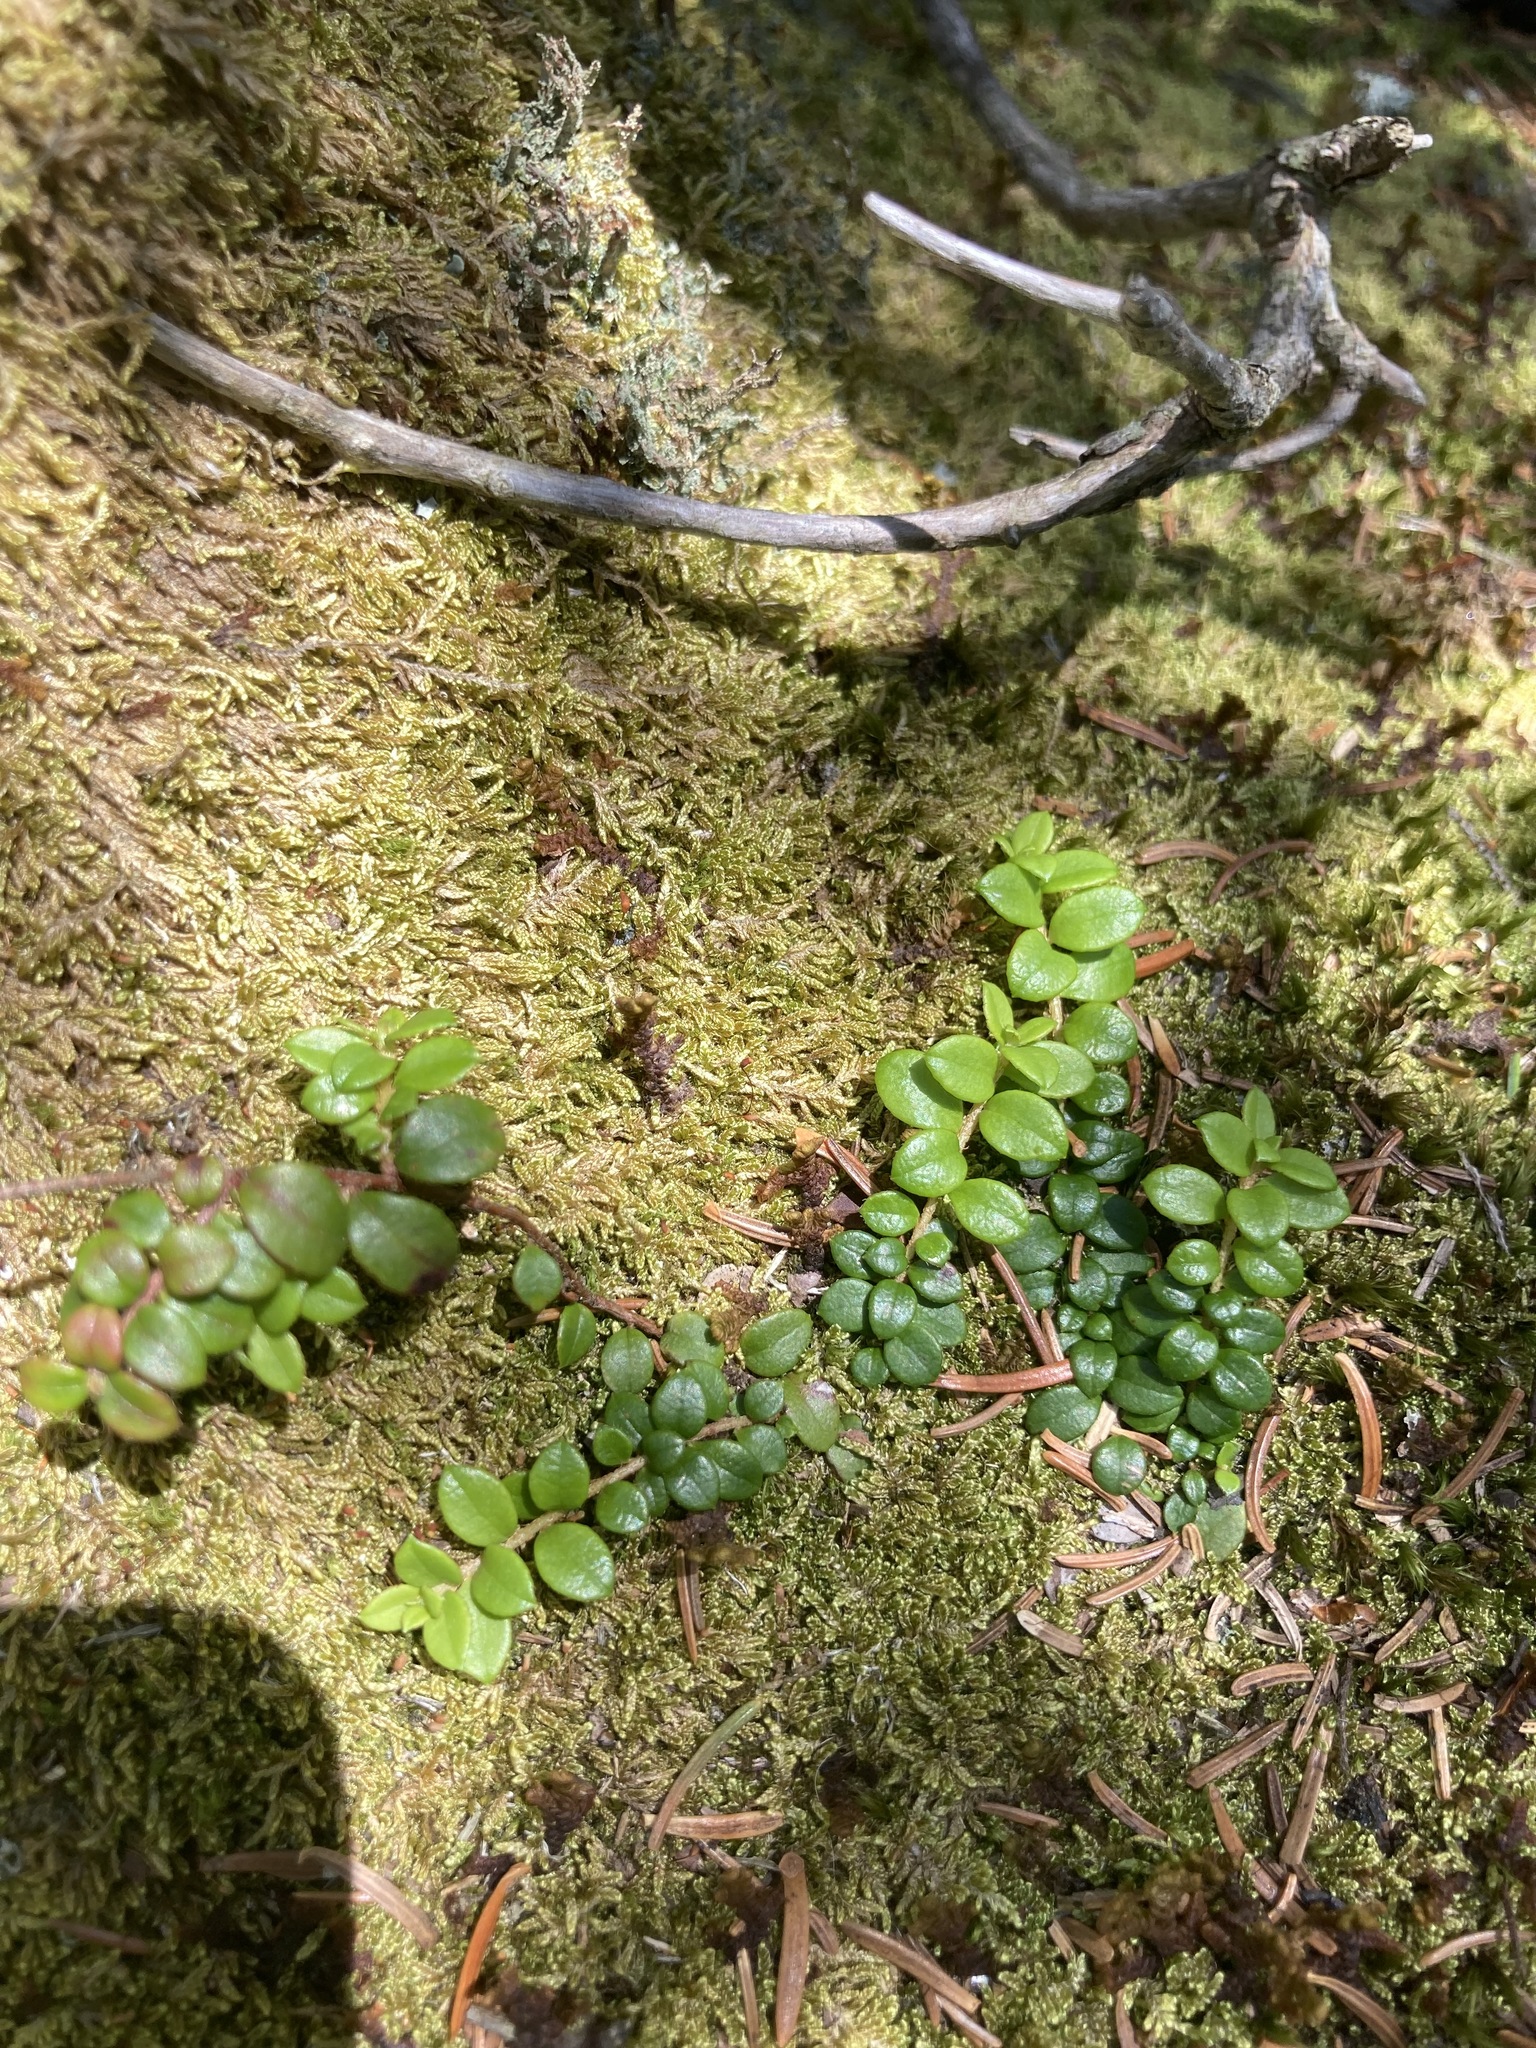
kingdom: Plantae
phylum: Tracheophyta
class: Magnoliopsida
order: Ericales
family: Ericaceae
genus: Gaultheria
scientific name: Gaultheria hispidula
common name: Cancer wintergreen
